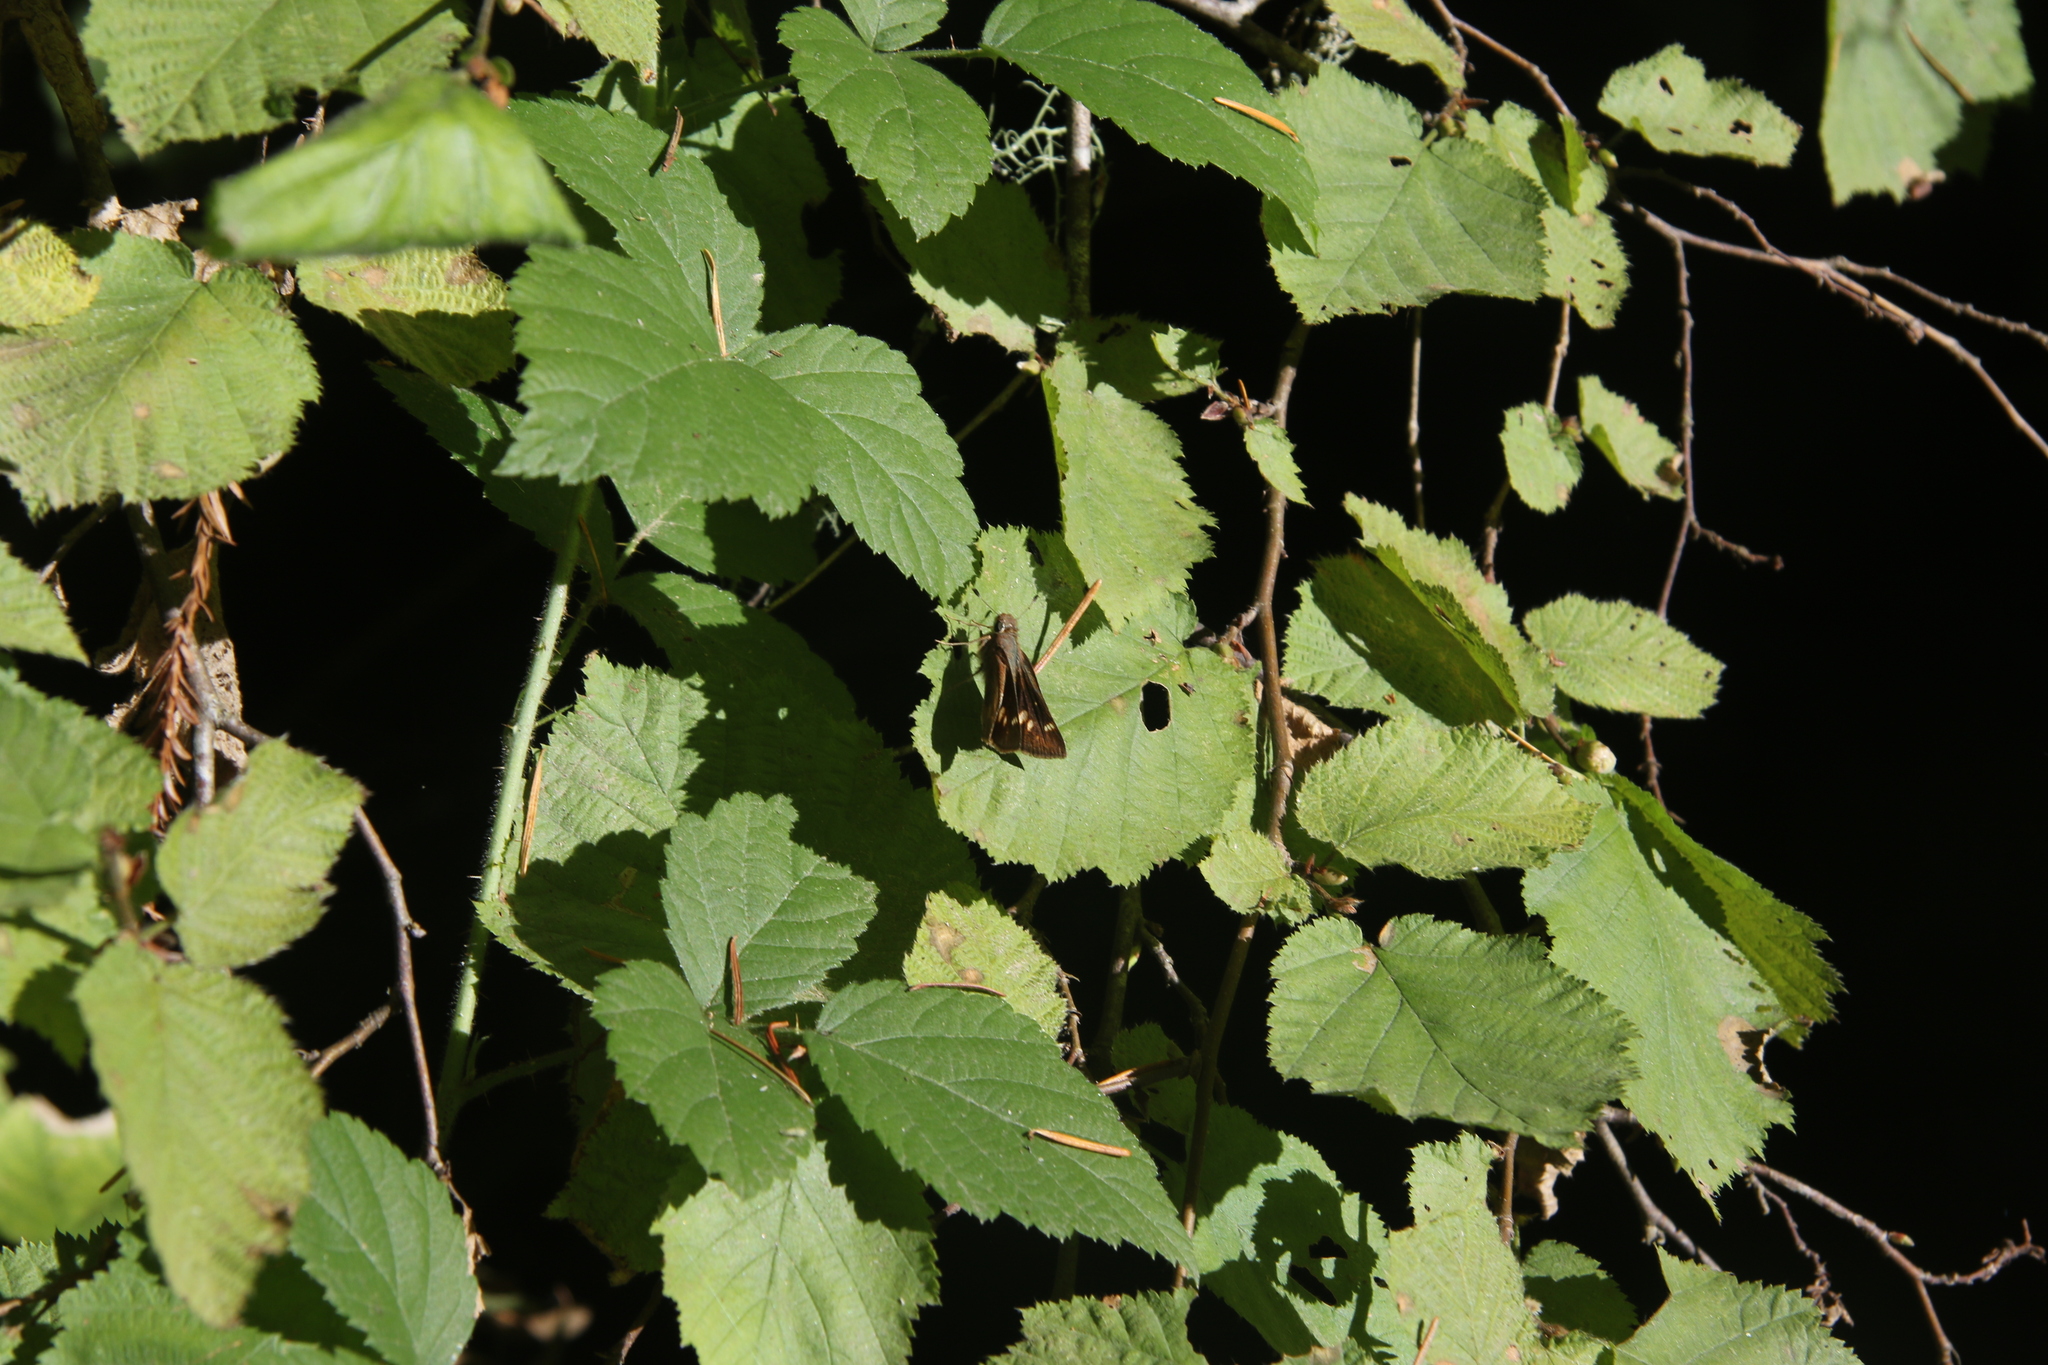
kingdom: Animalia
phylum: Arthropoda
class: Insecta
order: Lepidoptera
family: Hesperiidae
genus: Lon
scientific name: Lon melane
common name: Umber skipper
